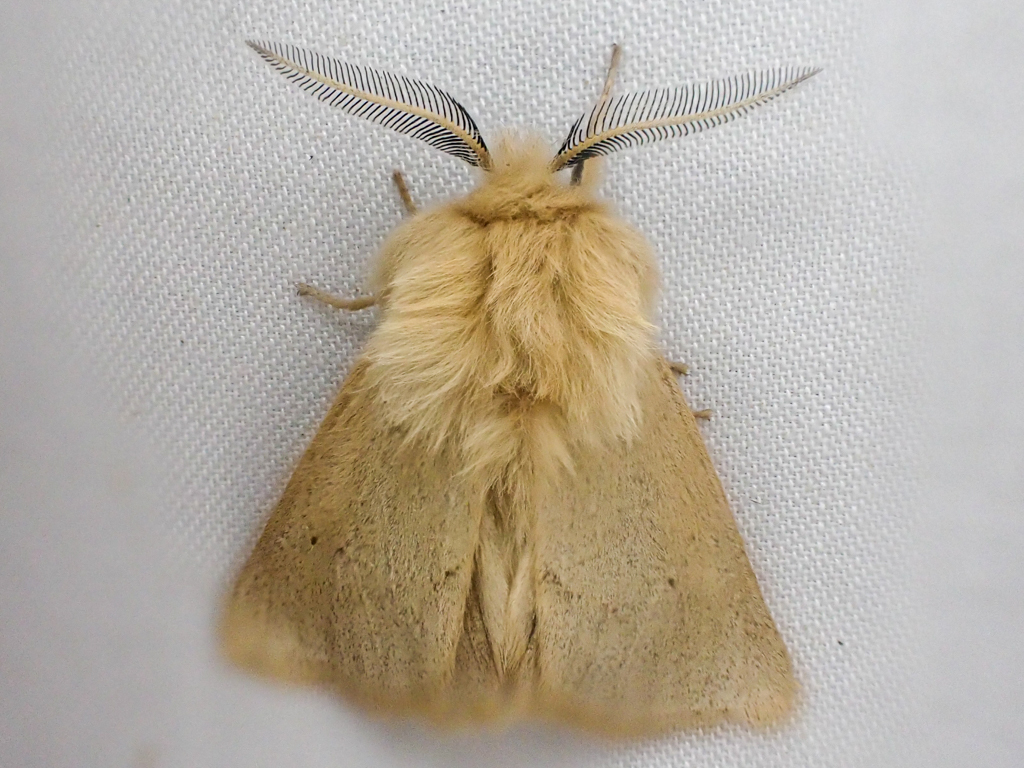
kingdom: Animalia
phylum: Arthropoda
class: Insecta
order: Lepidoptera
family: Erebidae
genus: Spilosoma
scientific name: Spilosoma vagans
